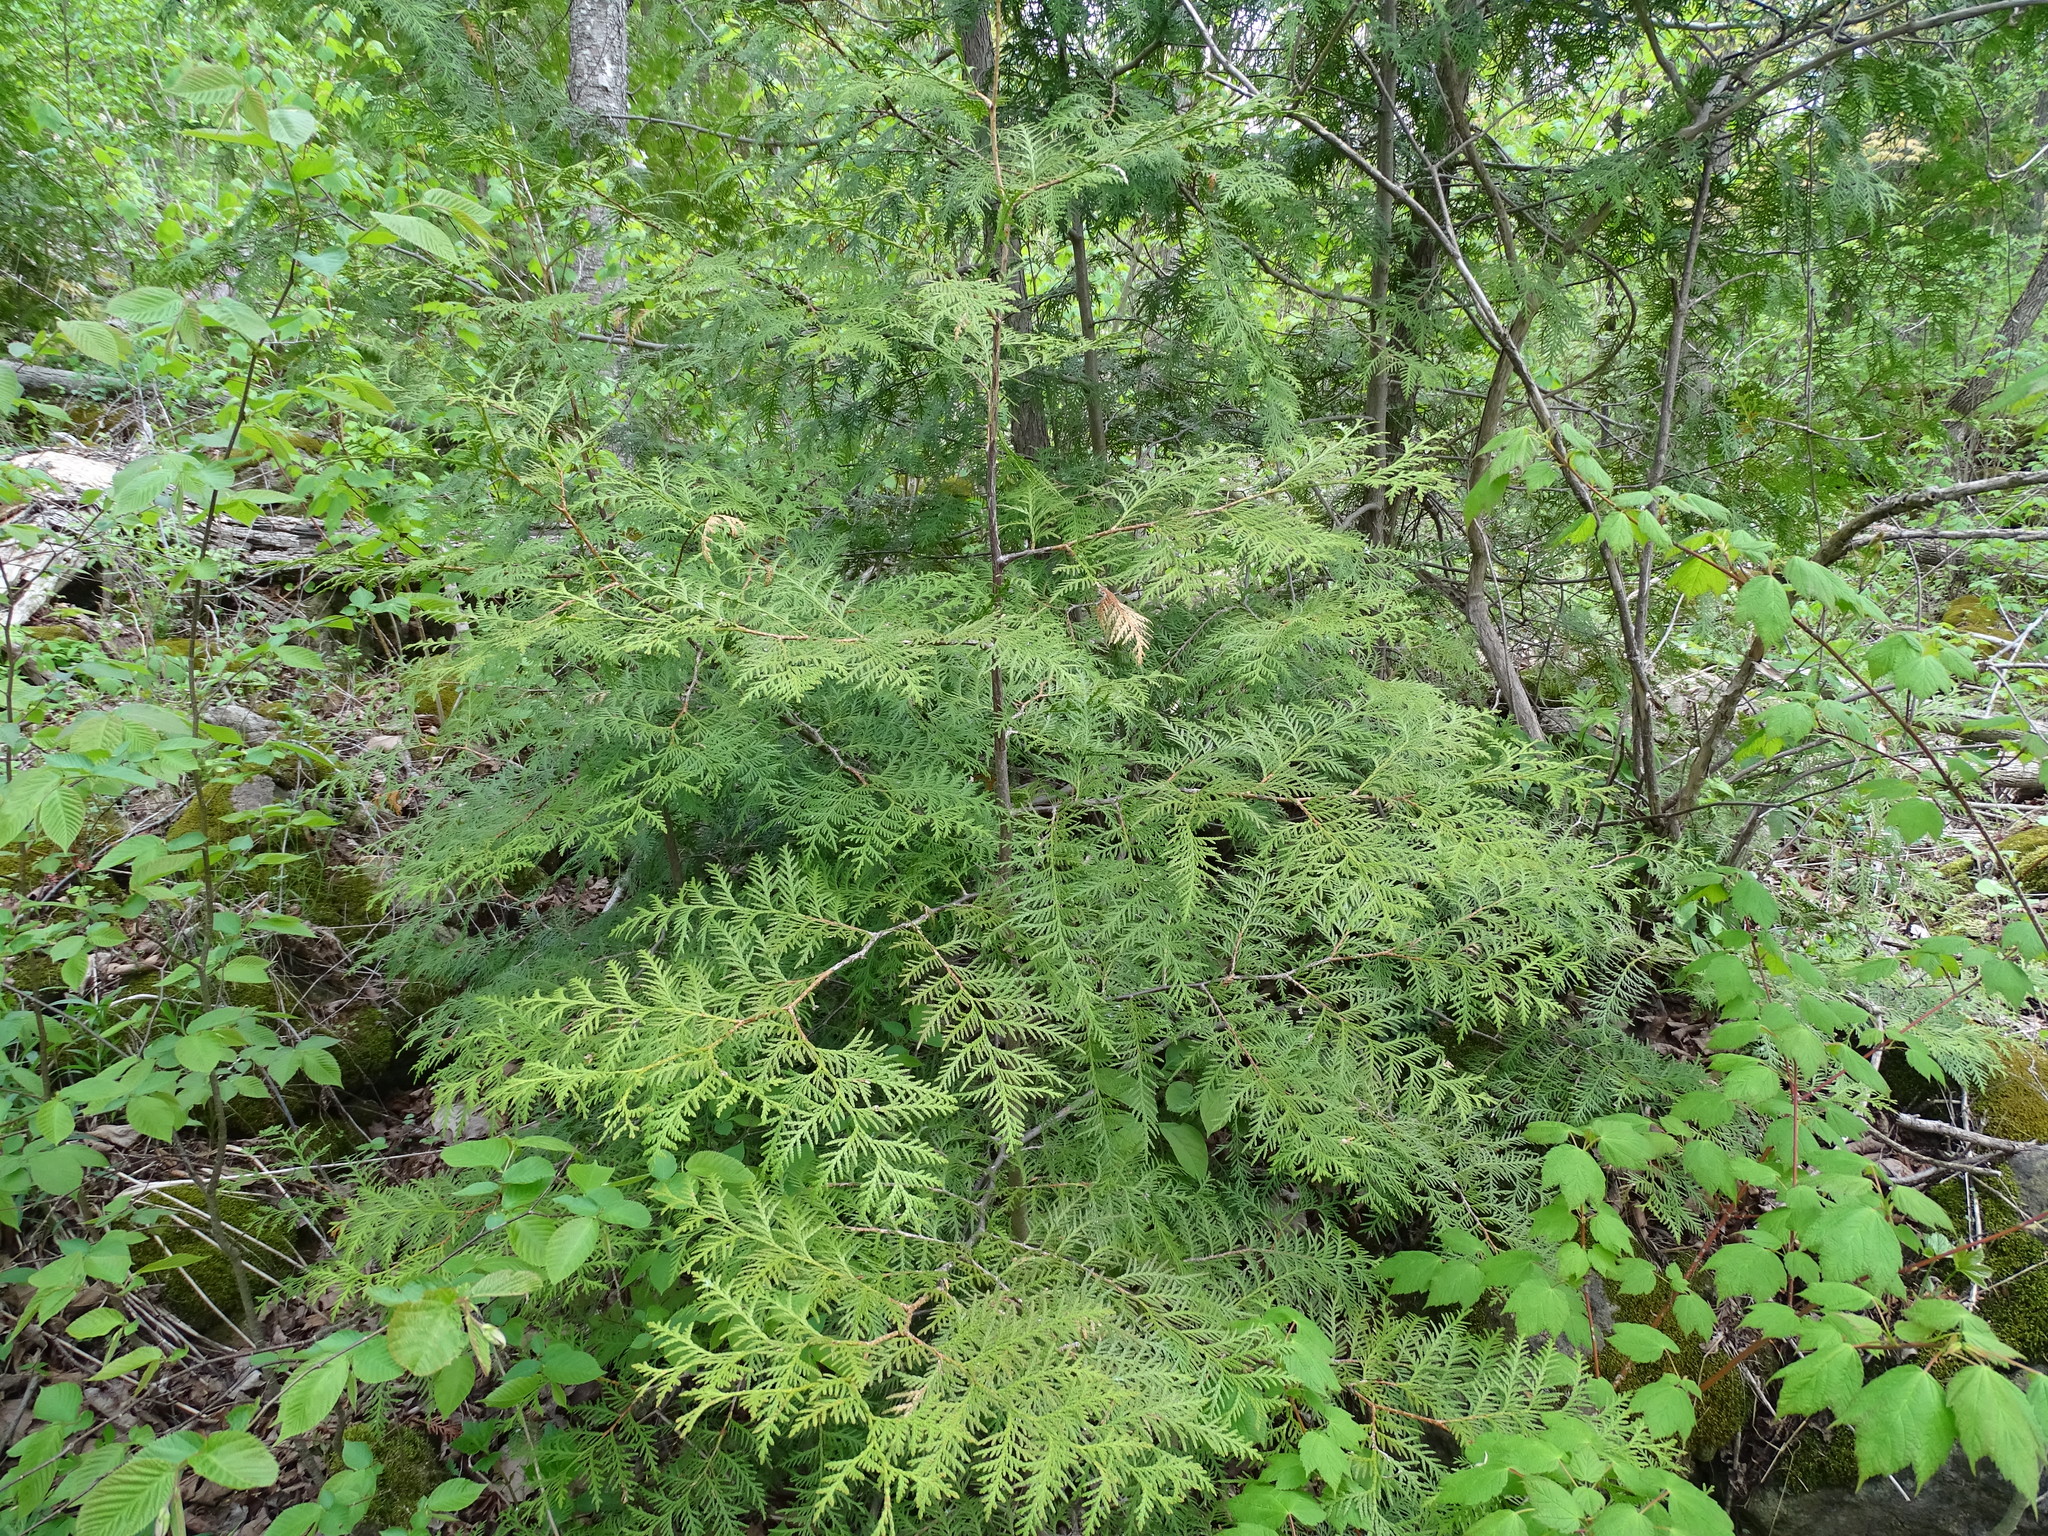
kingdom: Plantae
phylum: Tracheophyta
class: Pinopsida
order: Pinales
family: Cupressaceae
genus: Thuja
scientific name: Thuja occidentalis
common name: Northern white-cedar
